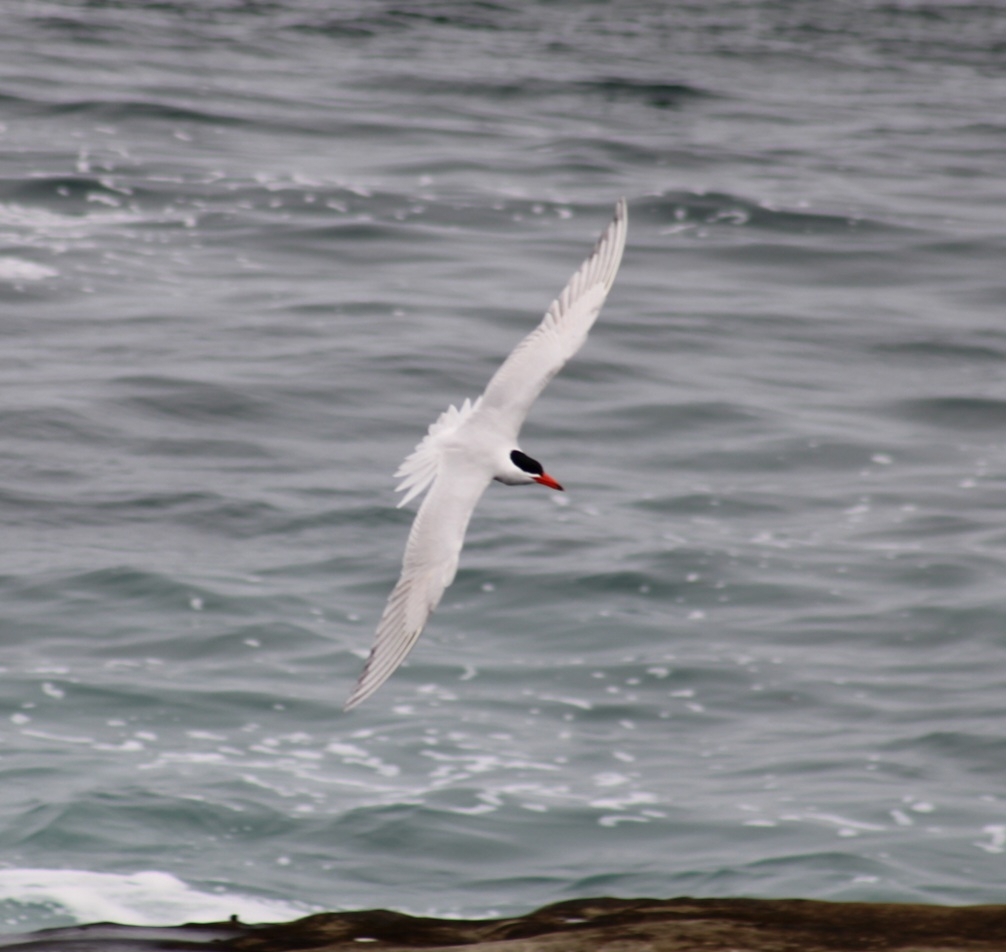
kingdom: Animalia
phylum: Chordata
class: Aves
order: Charadriiformes
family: Laridae
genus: Hydroprogne
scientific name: Hydroprogne caspia
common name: Caspian tern
